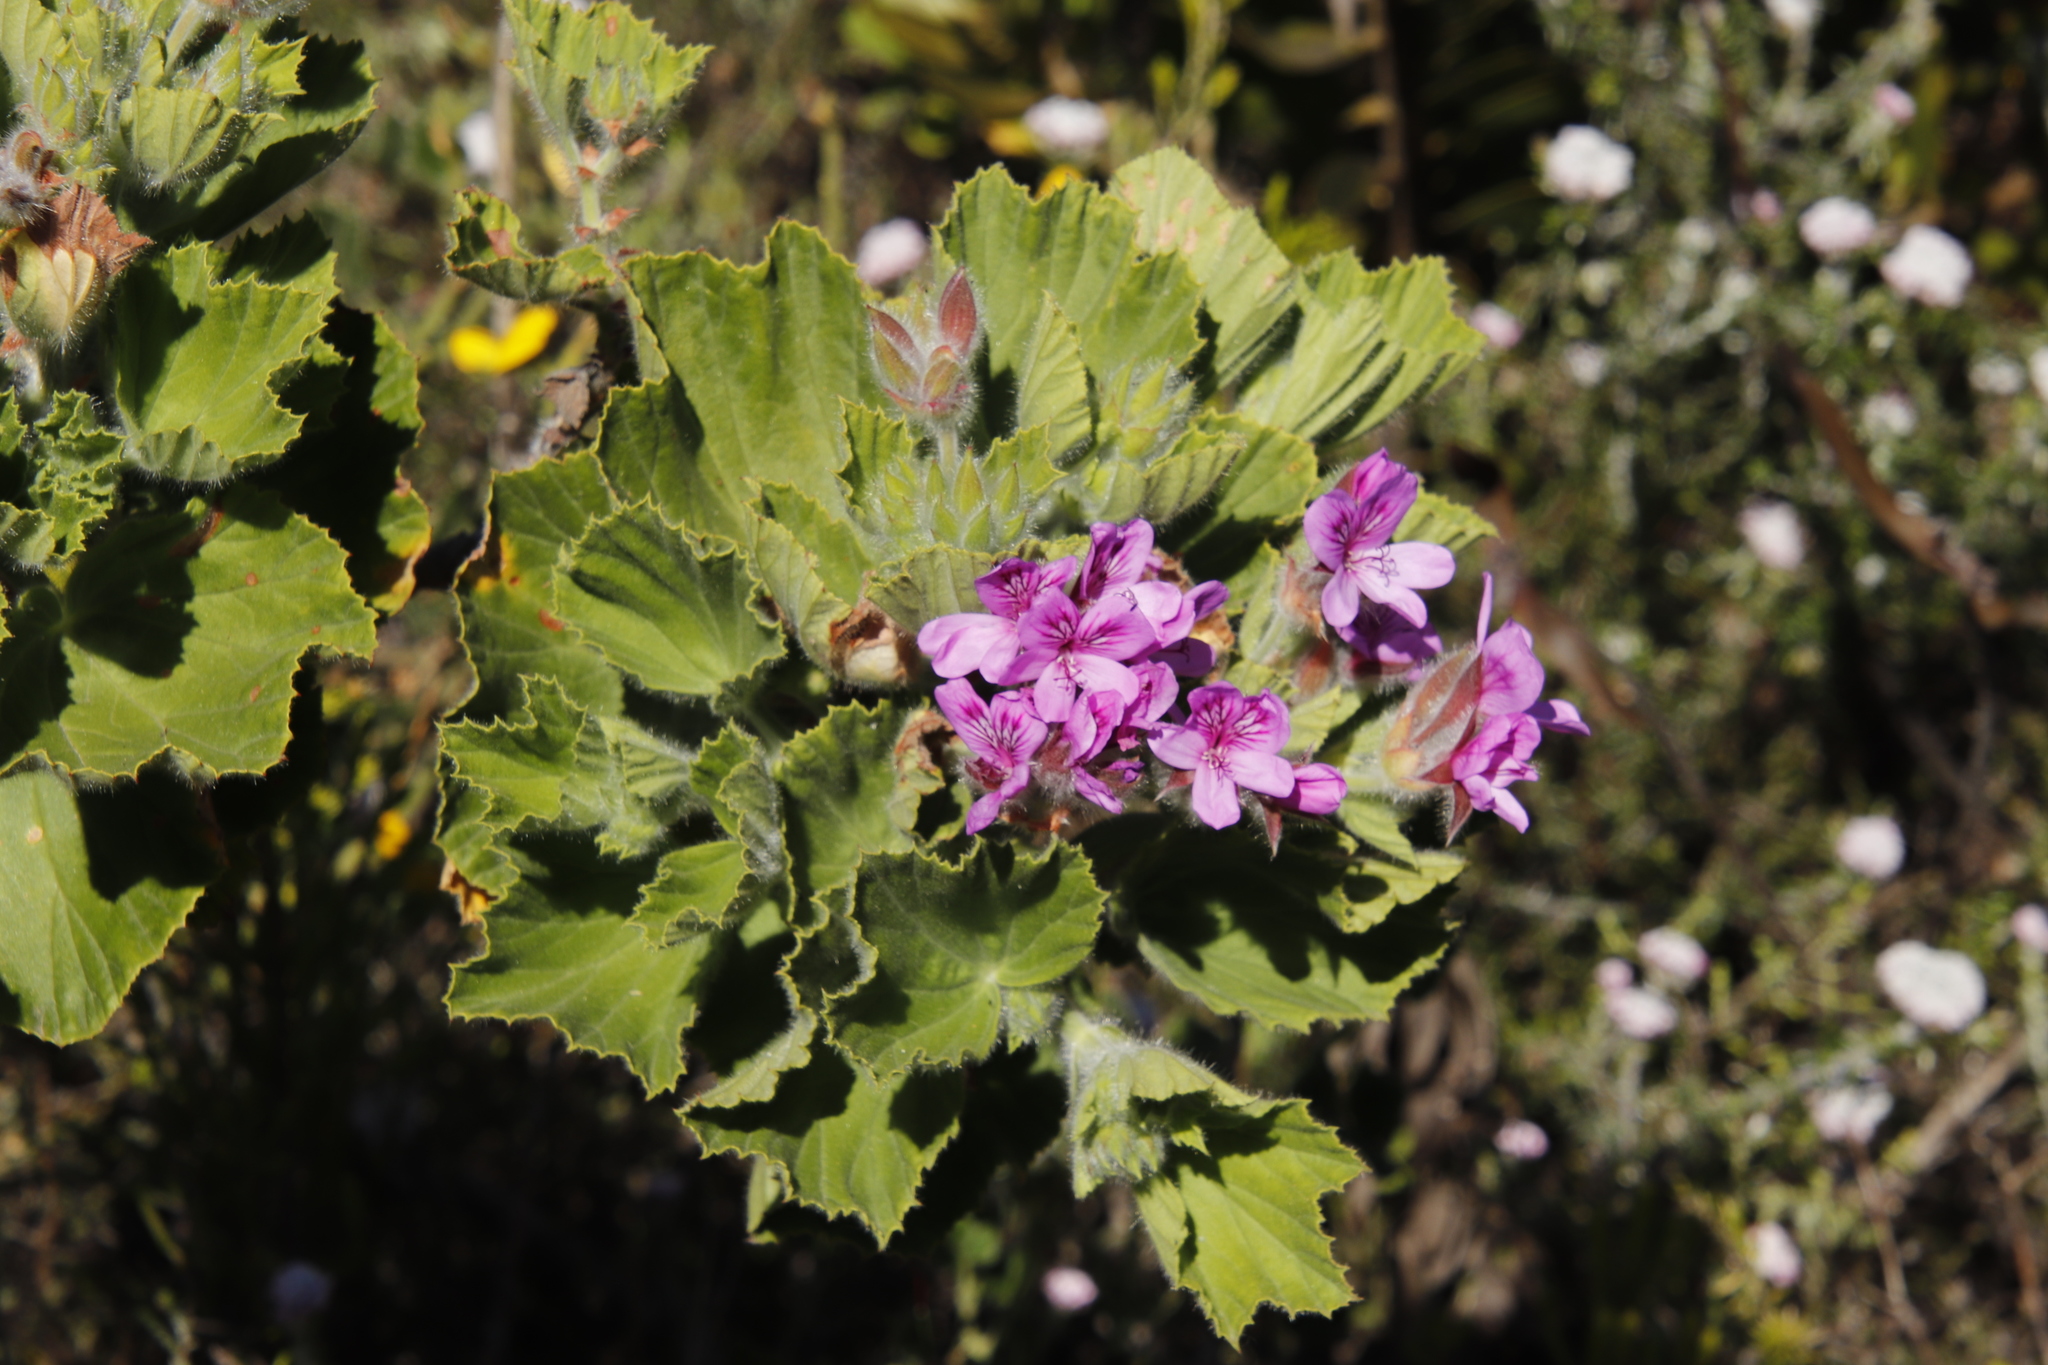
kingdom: Plantae
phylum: Tracheophyta
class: Magnoliopsida
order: Geraniales
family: Geraniaceae
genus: Pelargonium
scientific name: Pelargonium cucullatum
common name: Tree pelargonium
